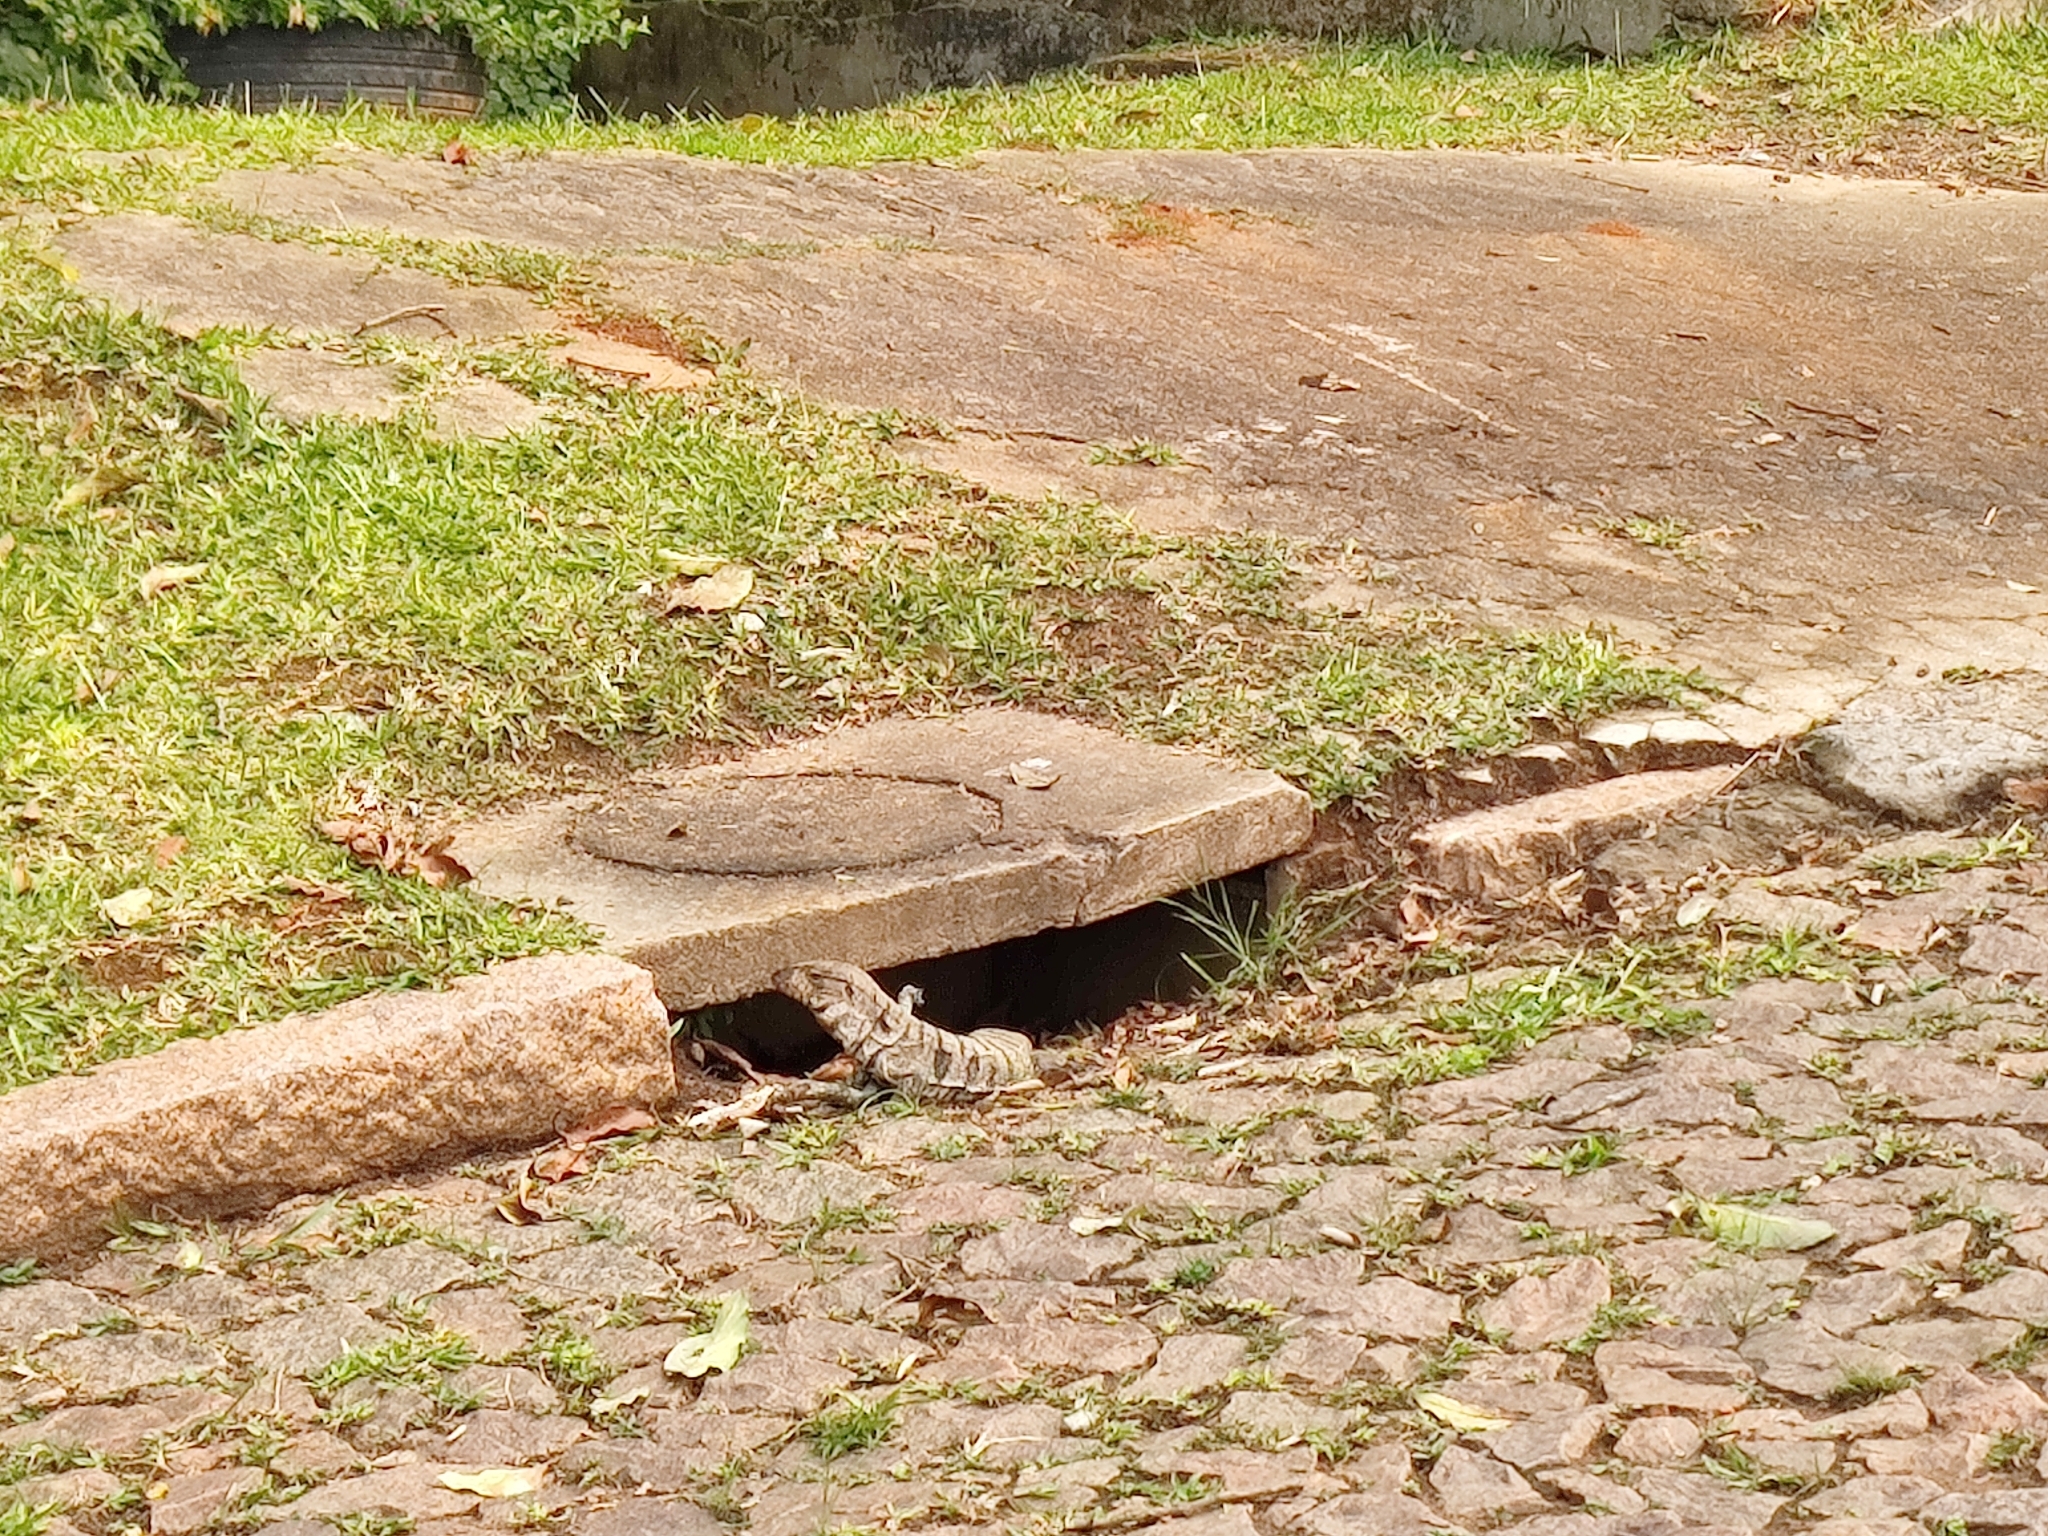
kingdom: Animalia
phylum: Chordata
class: Squamata
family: Teiidae
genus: Salvator
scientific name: Salvator merianae
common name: Argentine black and white tegu
